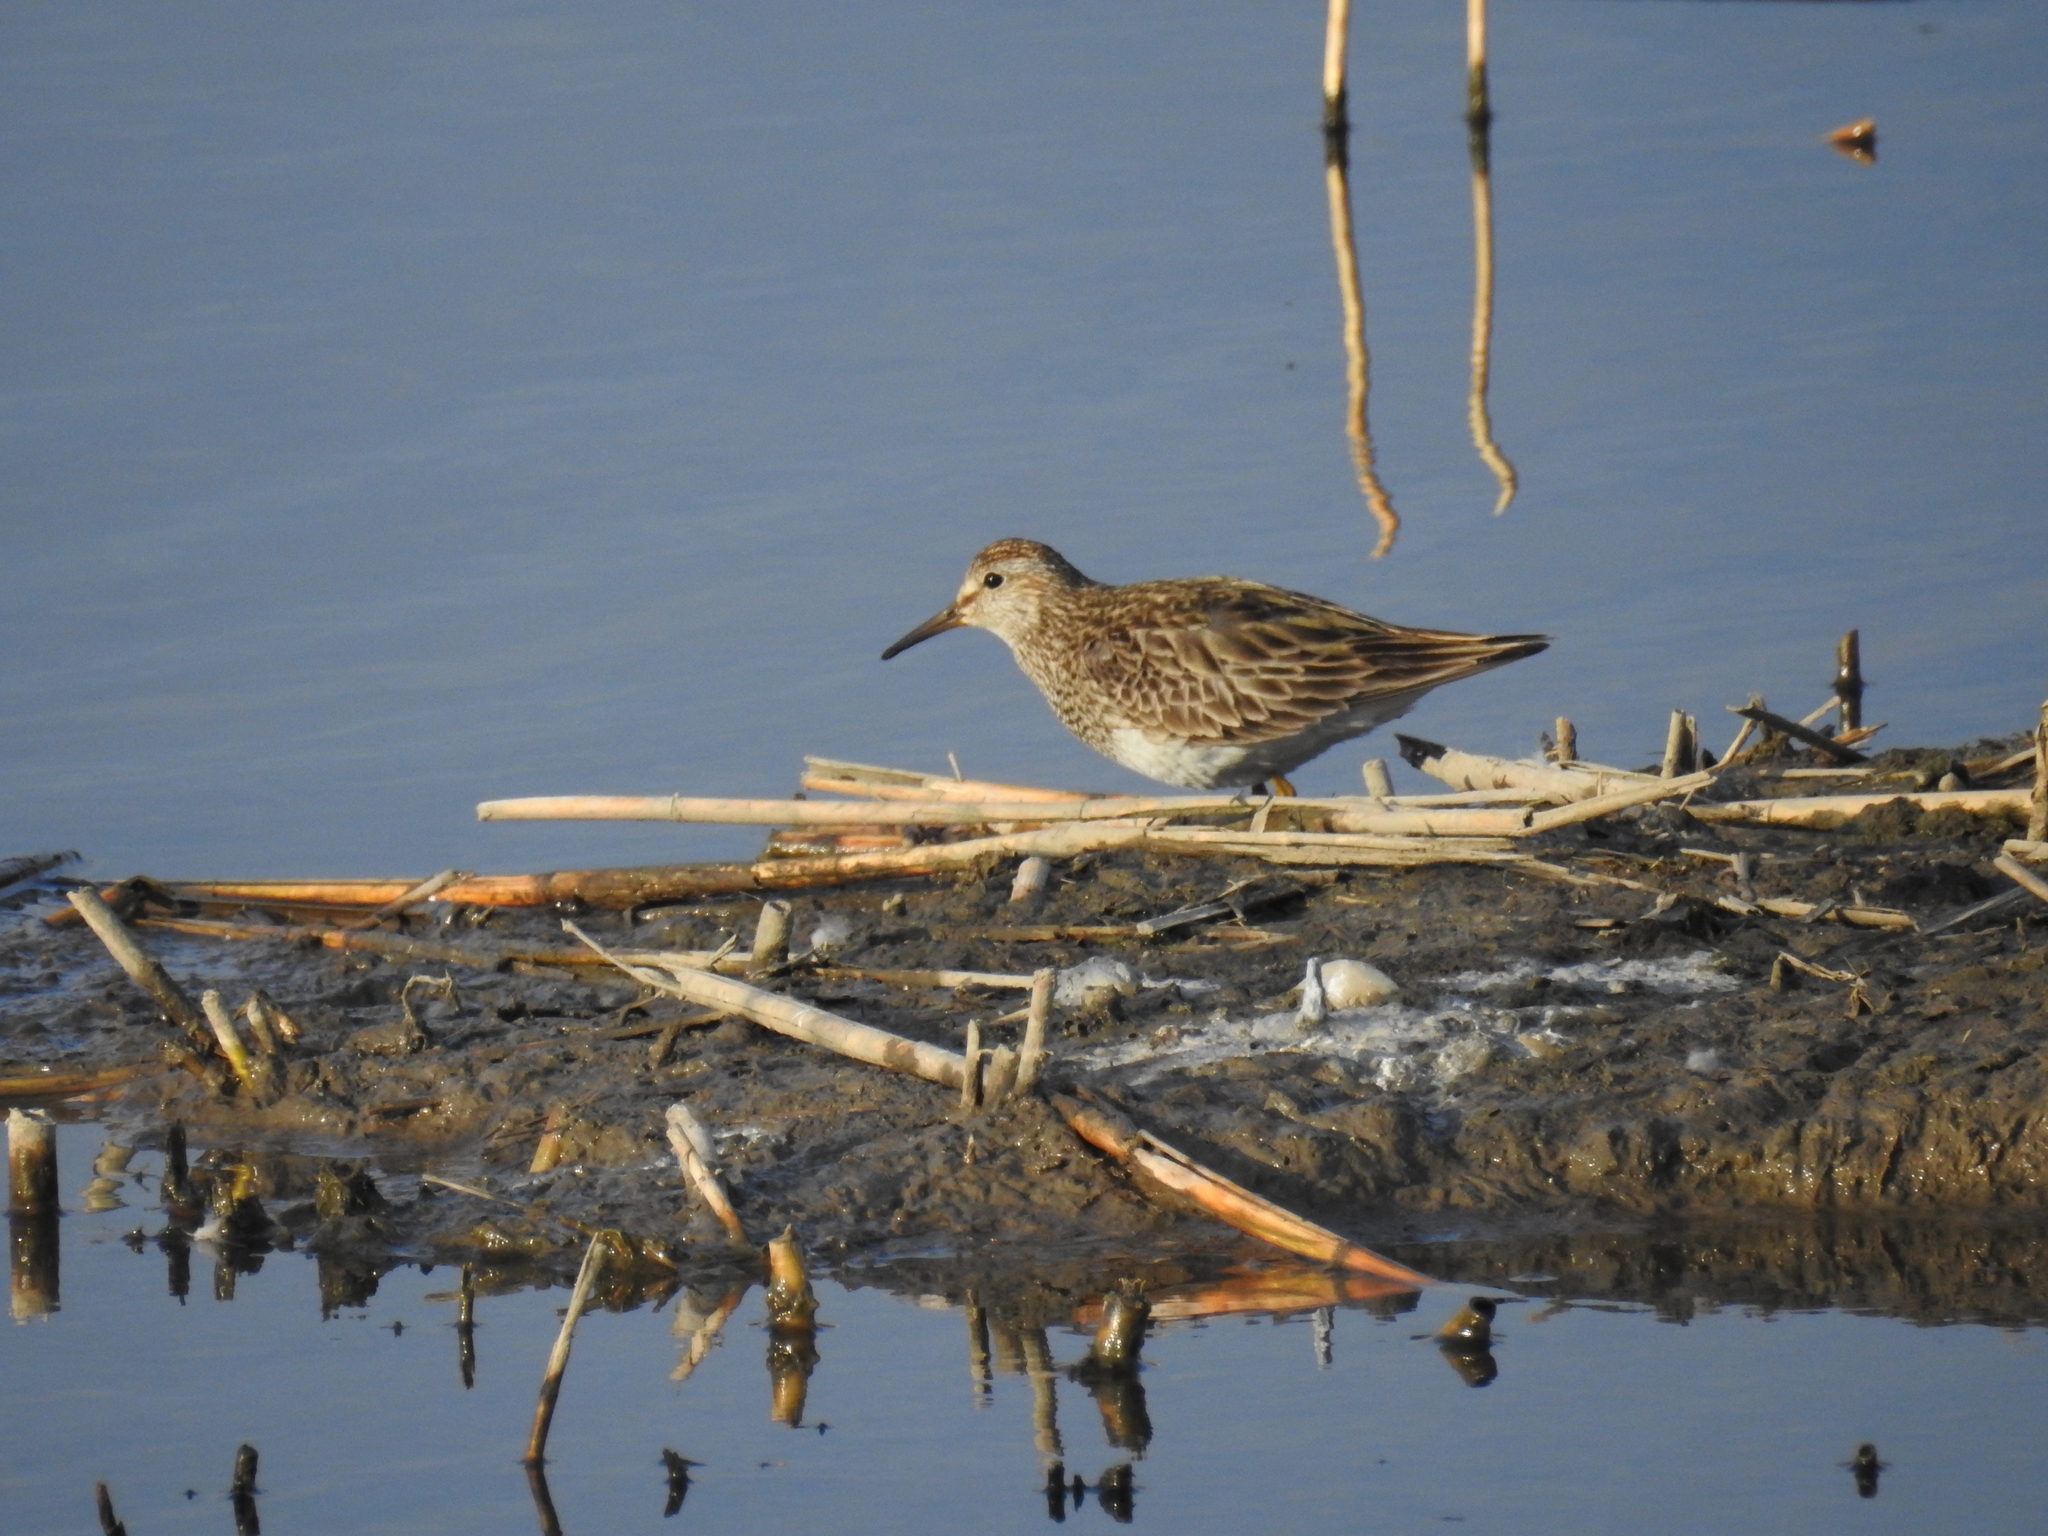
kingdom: Animalia
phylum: Chordata
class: Aves
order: Charadriiformes
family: Scolopacidae
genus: Calidris
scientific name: Calidris melanotos
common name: Pectoral sandpiper
